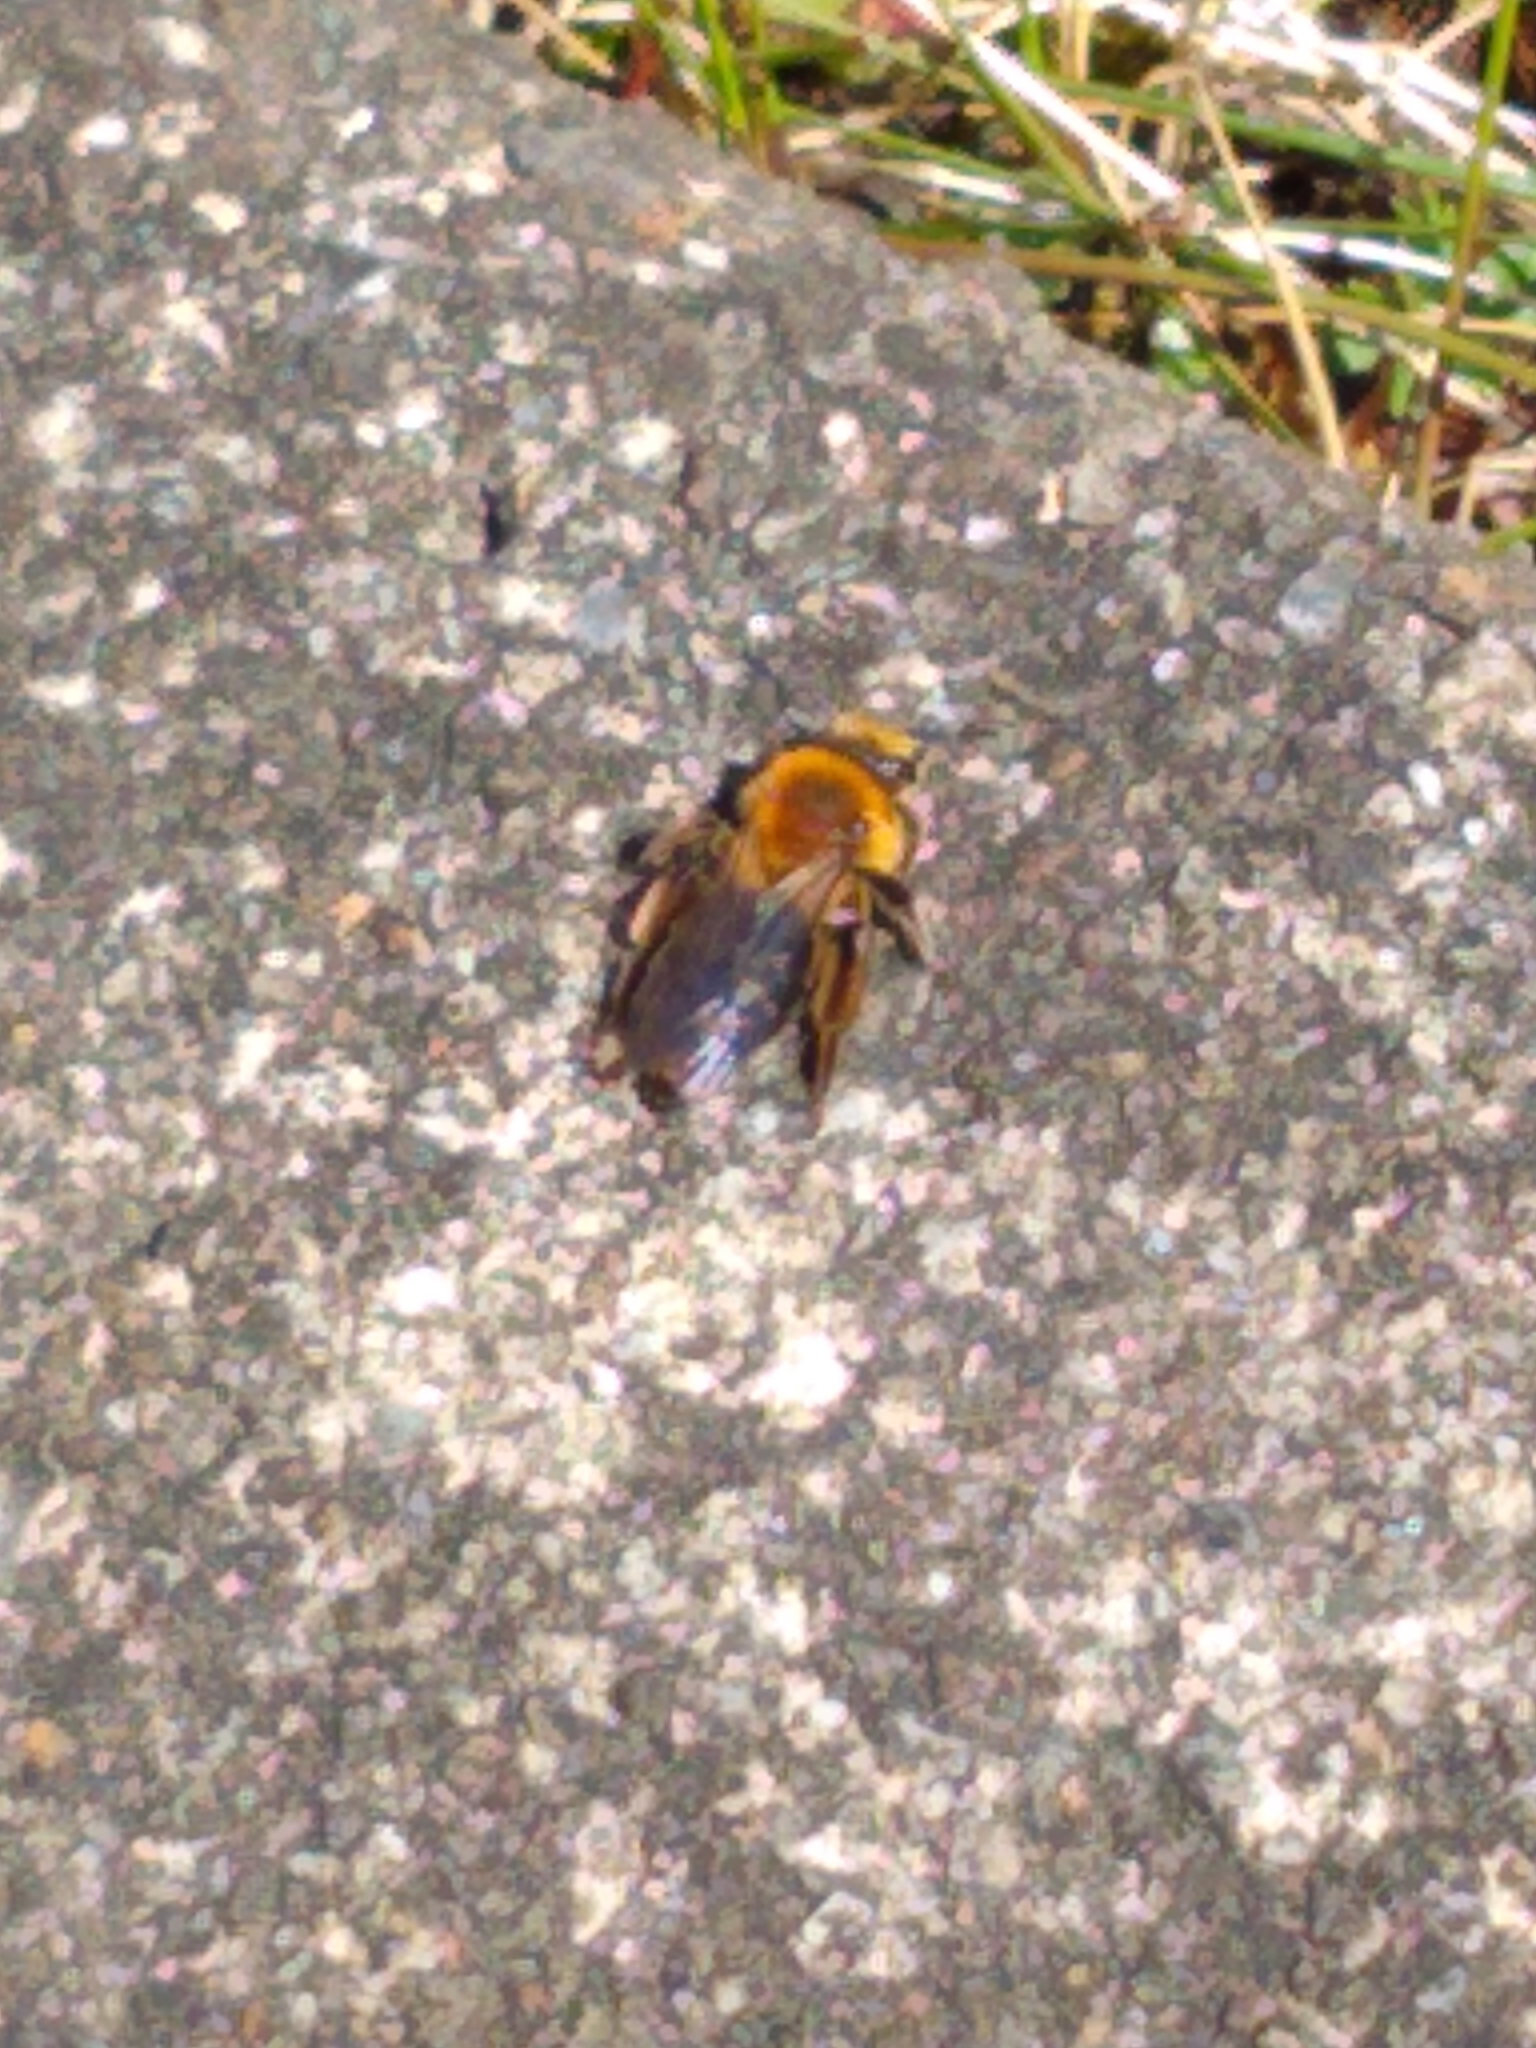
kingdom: Animalia
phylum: Arthropoda
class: Insecta
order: Hymenoptera
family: Andrenidae
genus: Andrena
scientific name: Andrena dunningi
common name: Dunning's miner
